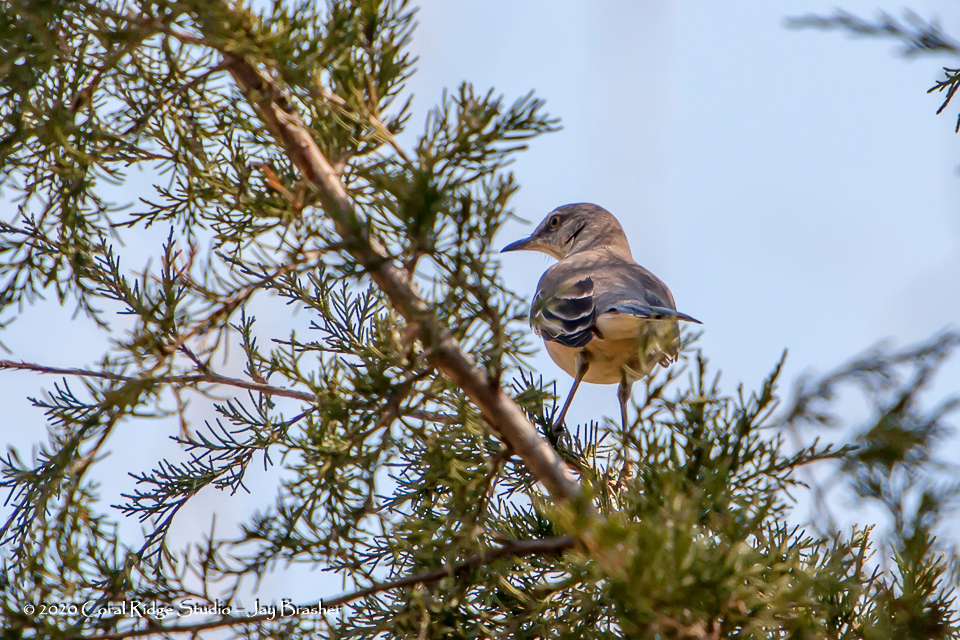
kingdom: Animalia
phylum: Chordata
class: Aves
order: Passeriformes
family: Mimidae
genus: Mimus
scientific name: Mimus polyglottos
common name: Northern mockingbird
